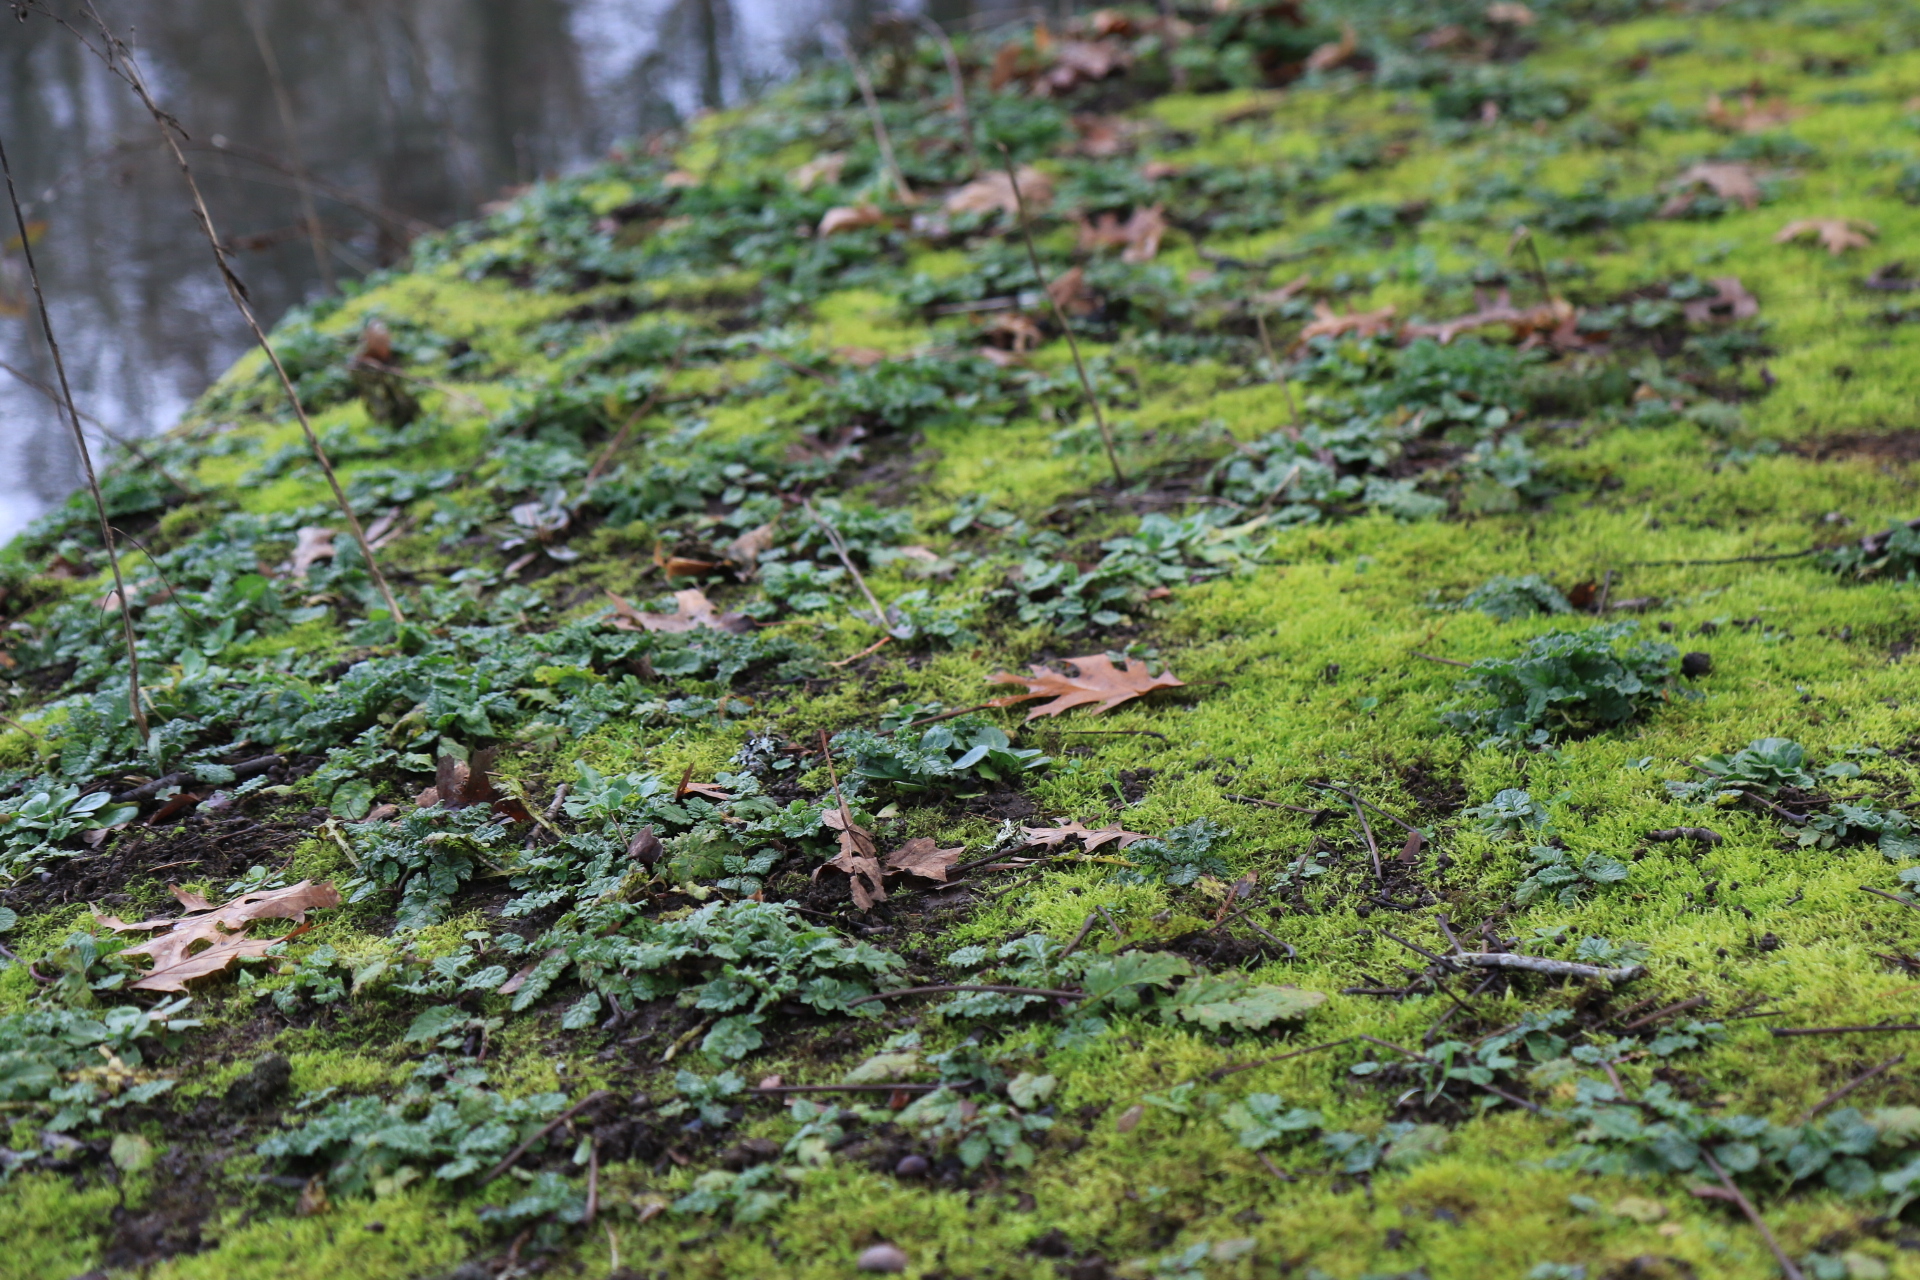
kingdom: Plantae
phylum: Tracheophyta
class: Magnoliopsida
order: Asterales
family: Asteraceae
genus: Jacobaea
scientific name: Jacobaea vulgaris
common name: Stinking willie
